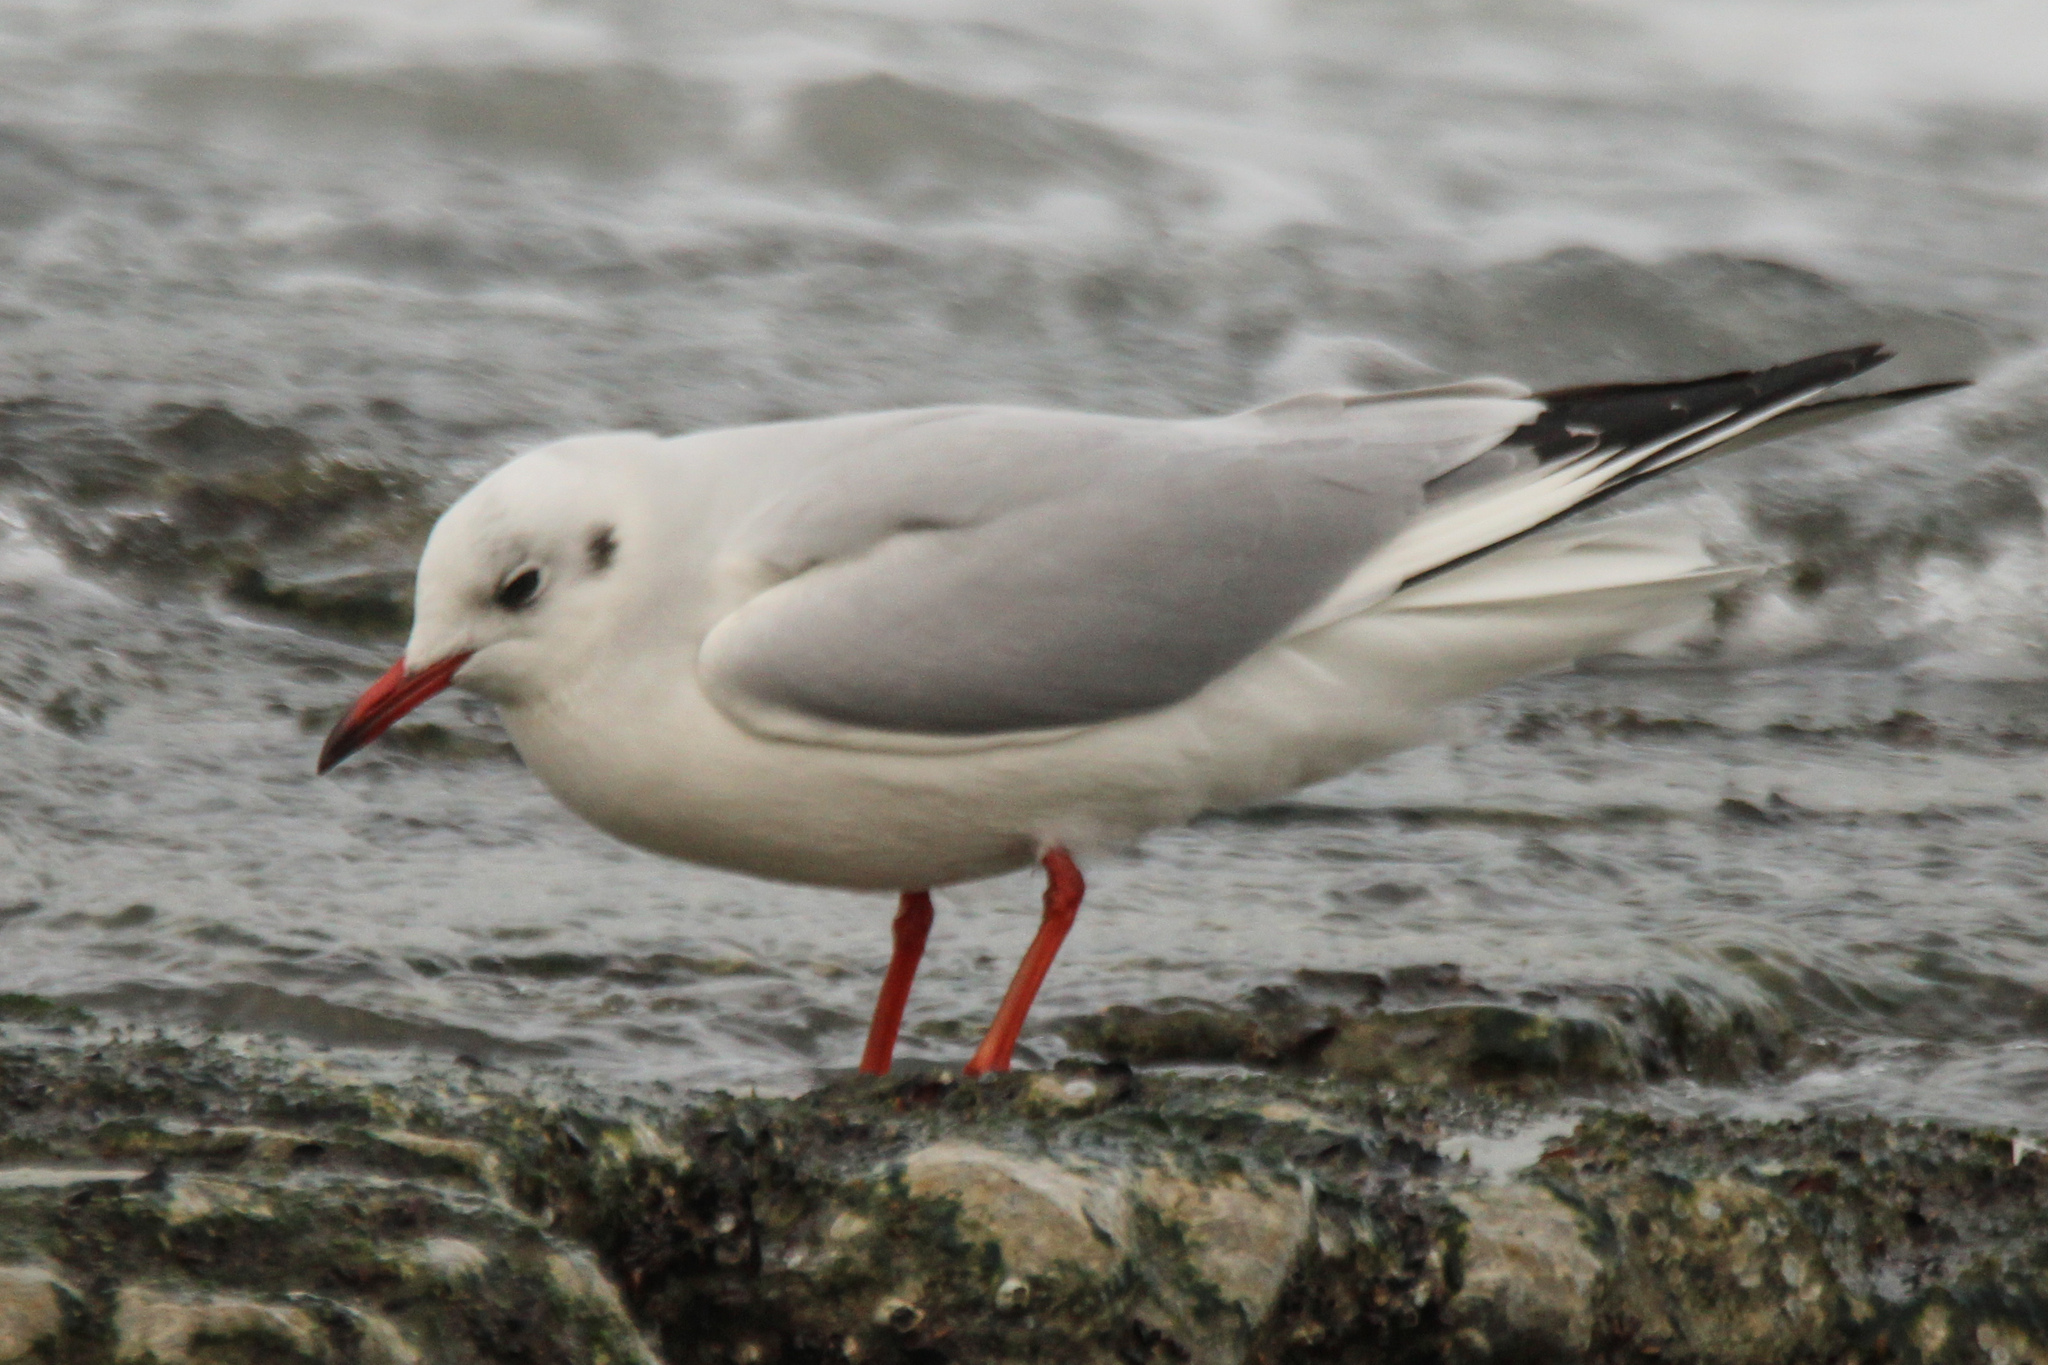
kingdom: Animalia
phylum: Chordata
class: Aves
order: Charadriiformes
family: Laridae
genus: Chroicocephalus
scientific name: Chroicocephalus ridibundus
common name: Black-headed gull
